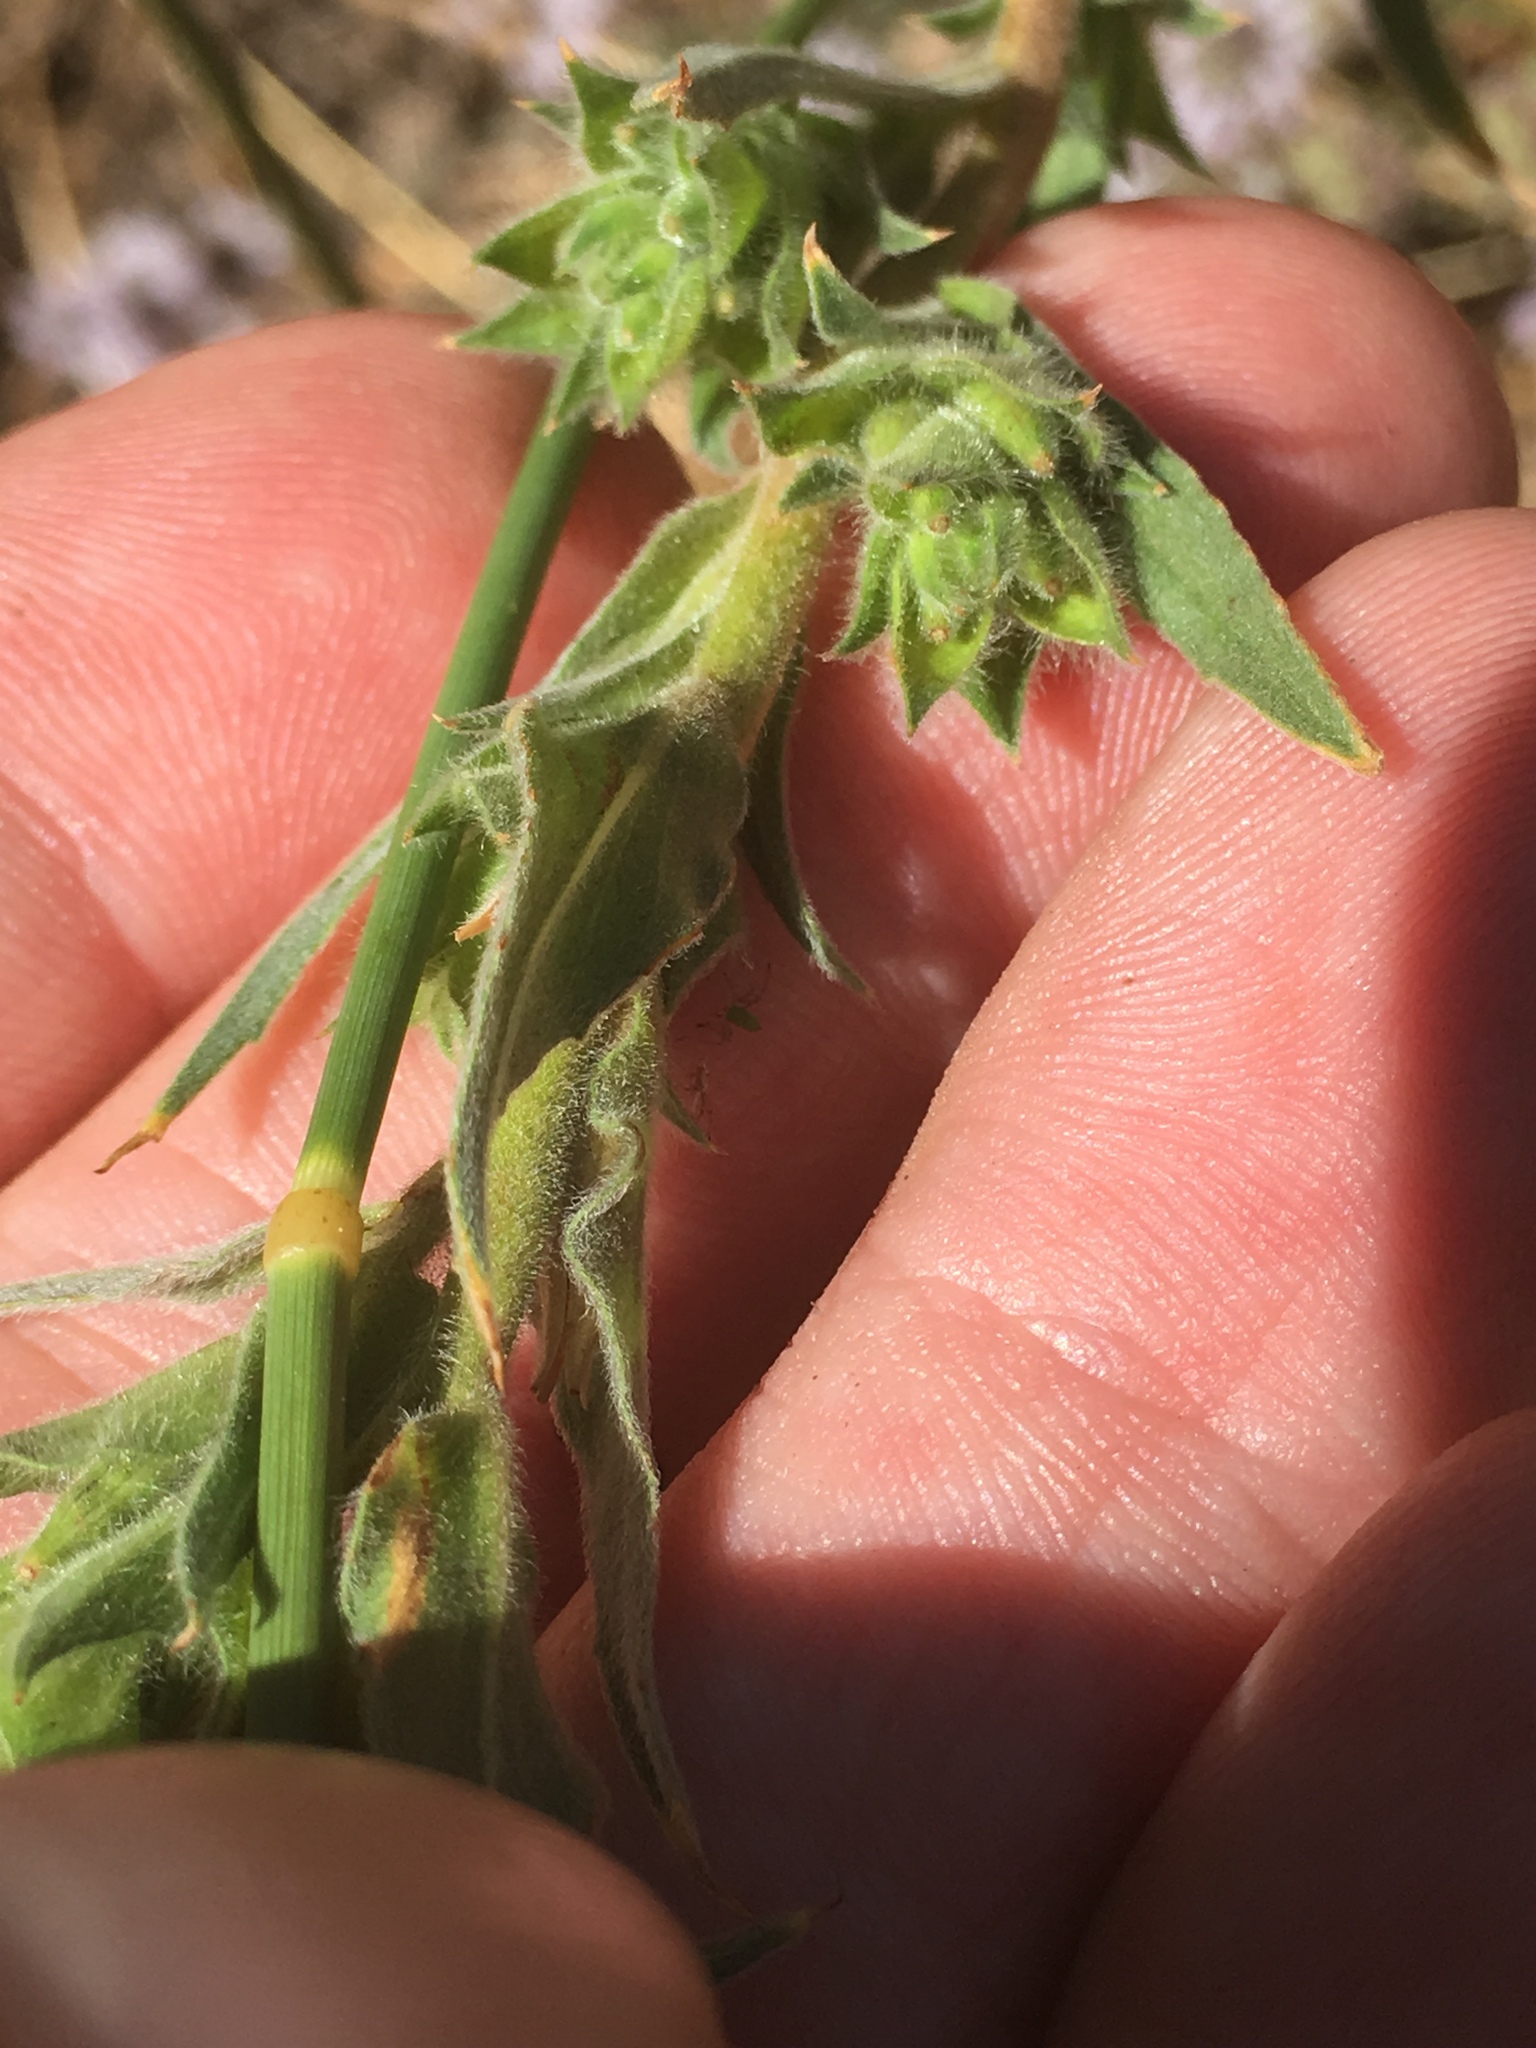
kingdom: Plantae
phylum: Tracheophyta
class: Magnoliopsida
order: Myrtales
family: Onagraceae
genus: Epilobium
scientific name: Epilobium densiflorum
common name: Dense spike-primrose
